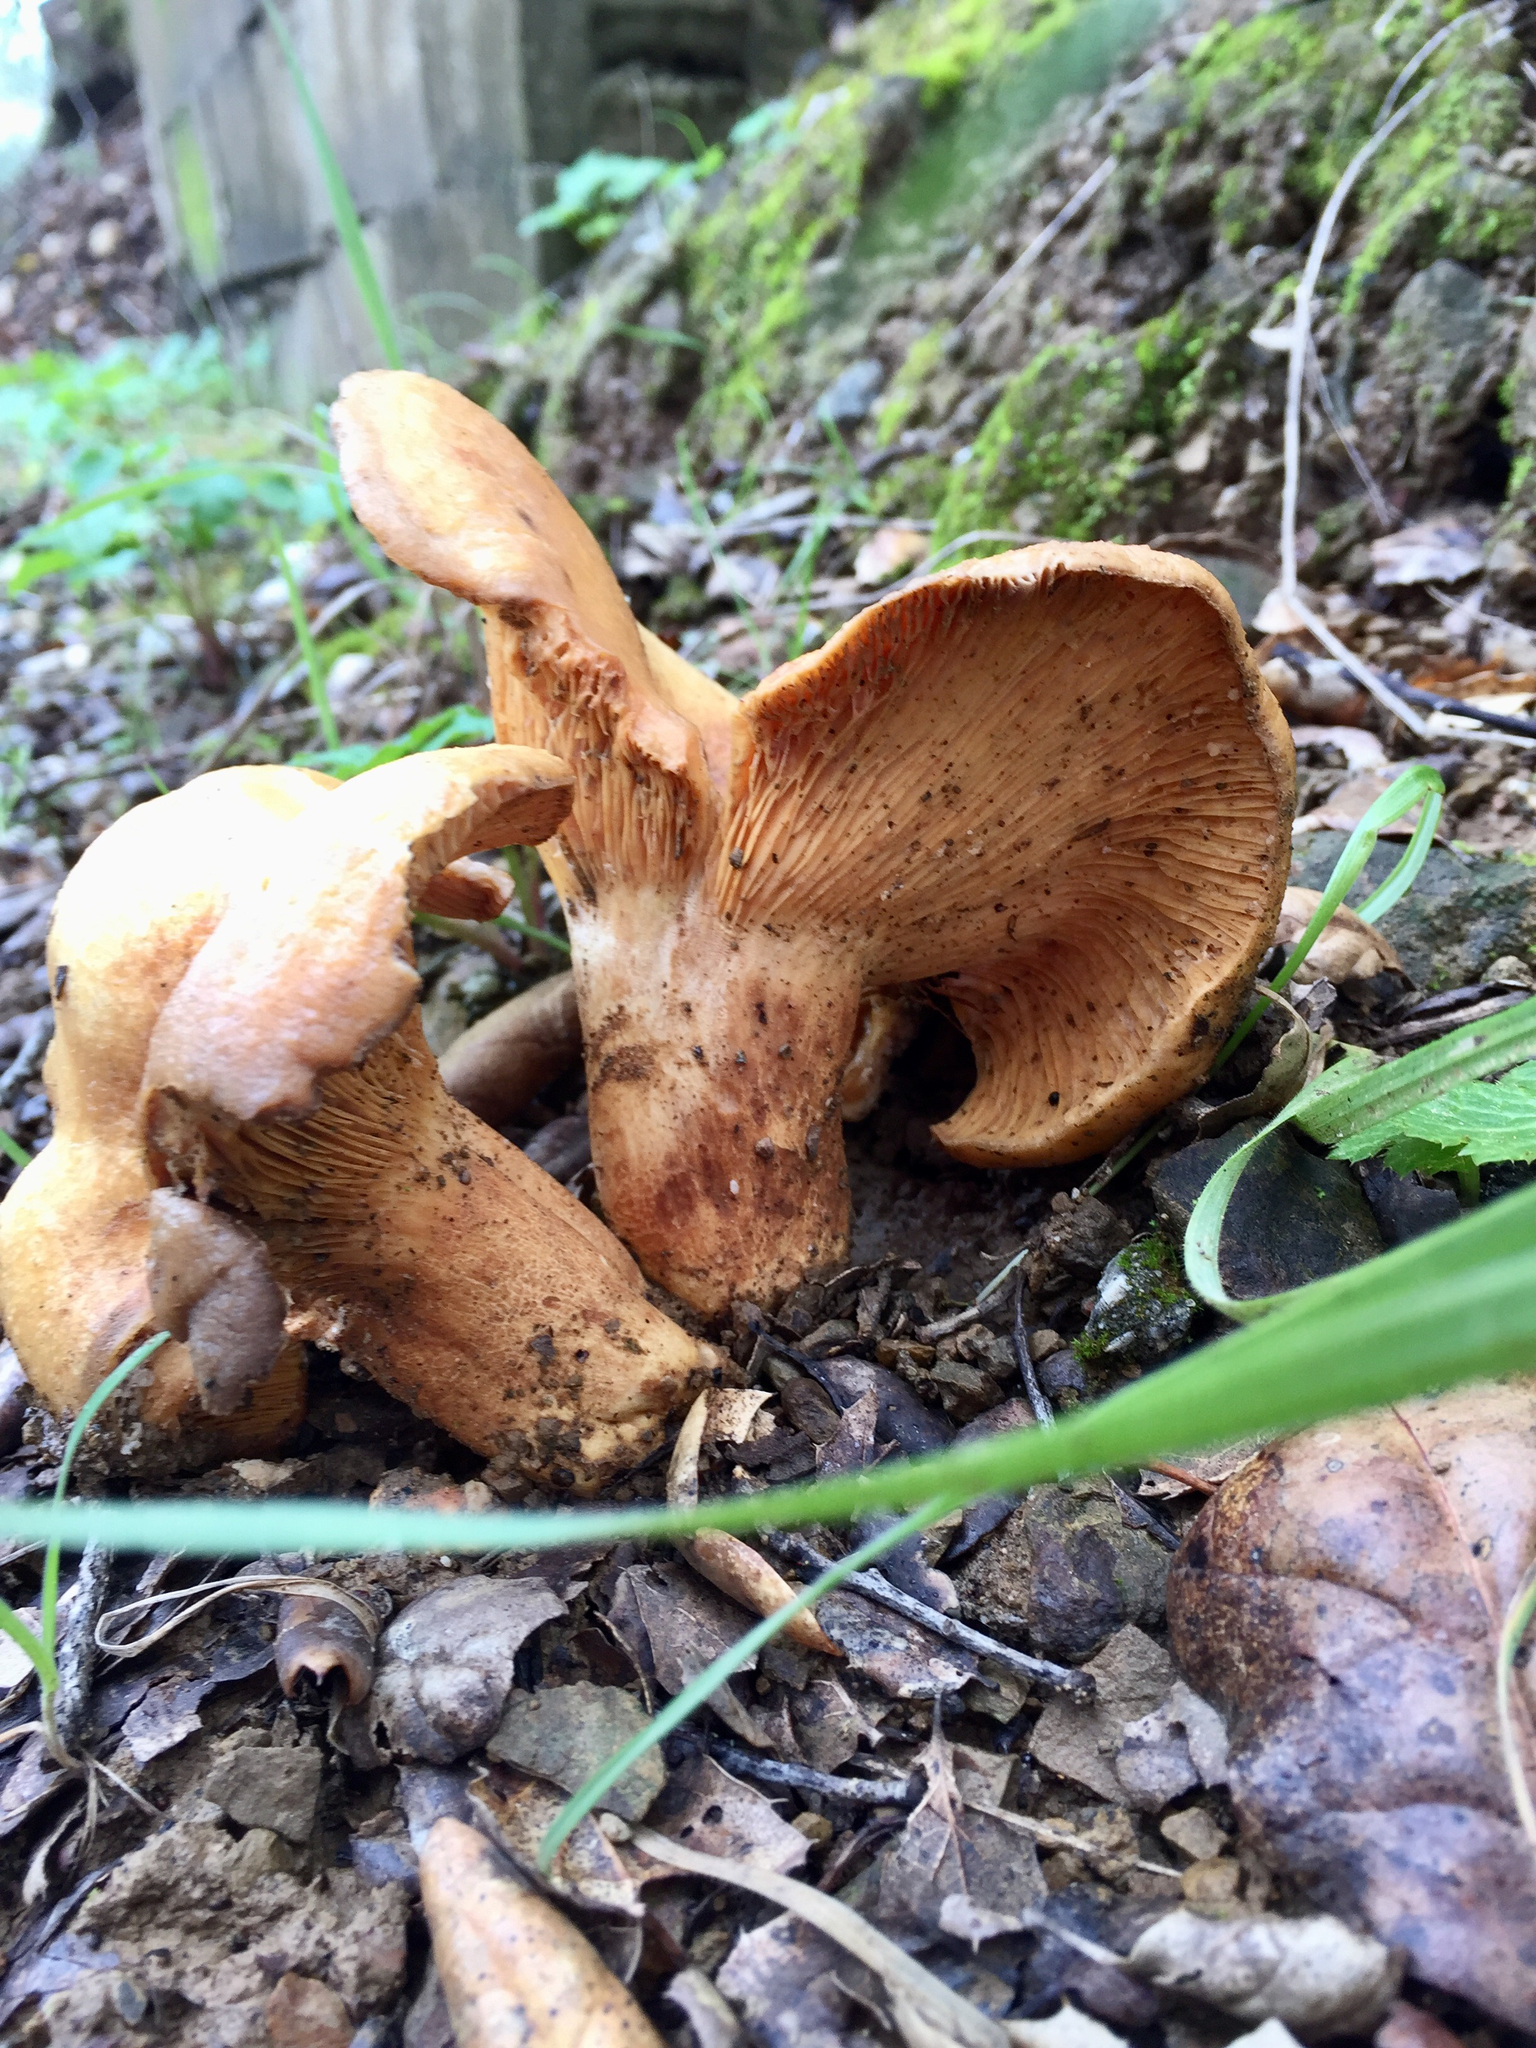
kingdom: Fungi
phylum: Basidiomycota
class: Agaricomycetes
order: Russulales
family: Russulaceae
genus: Lactarius
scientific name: Lactarius alnicola
